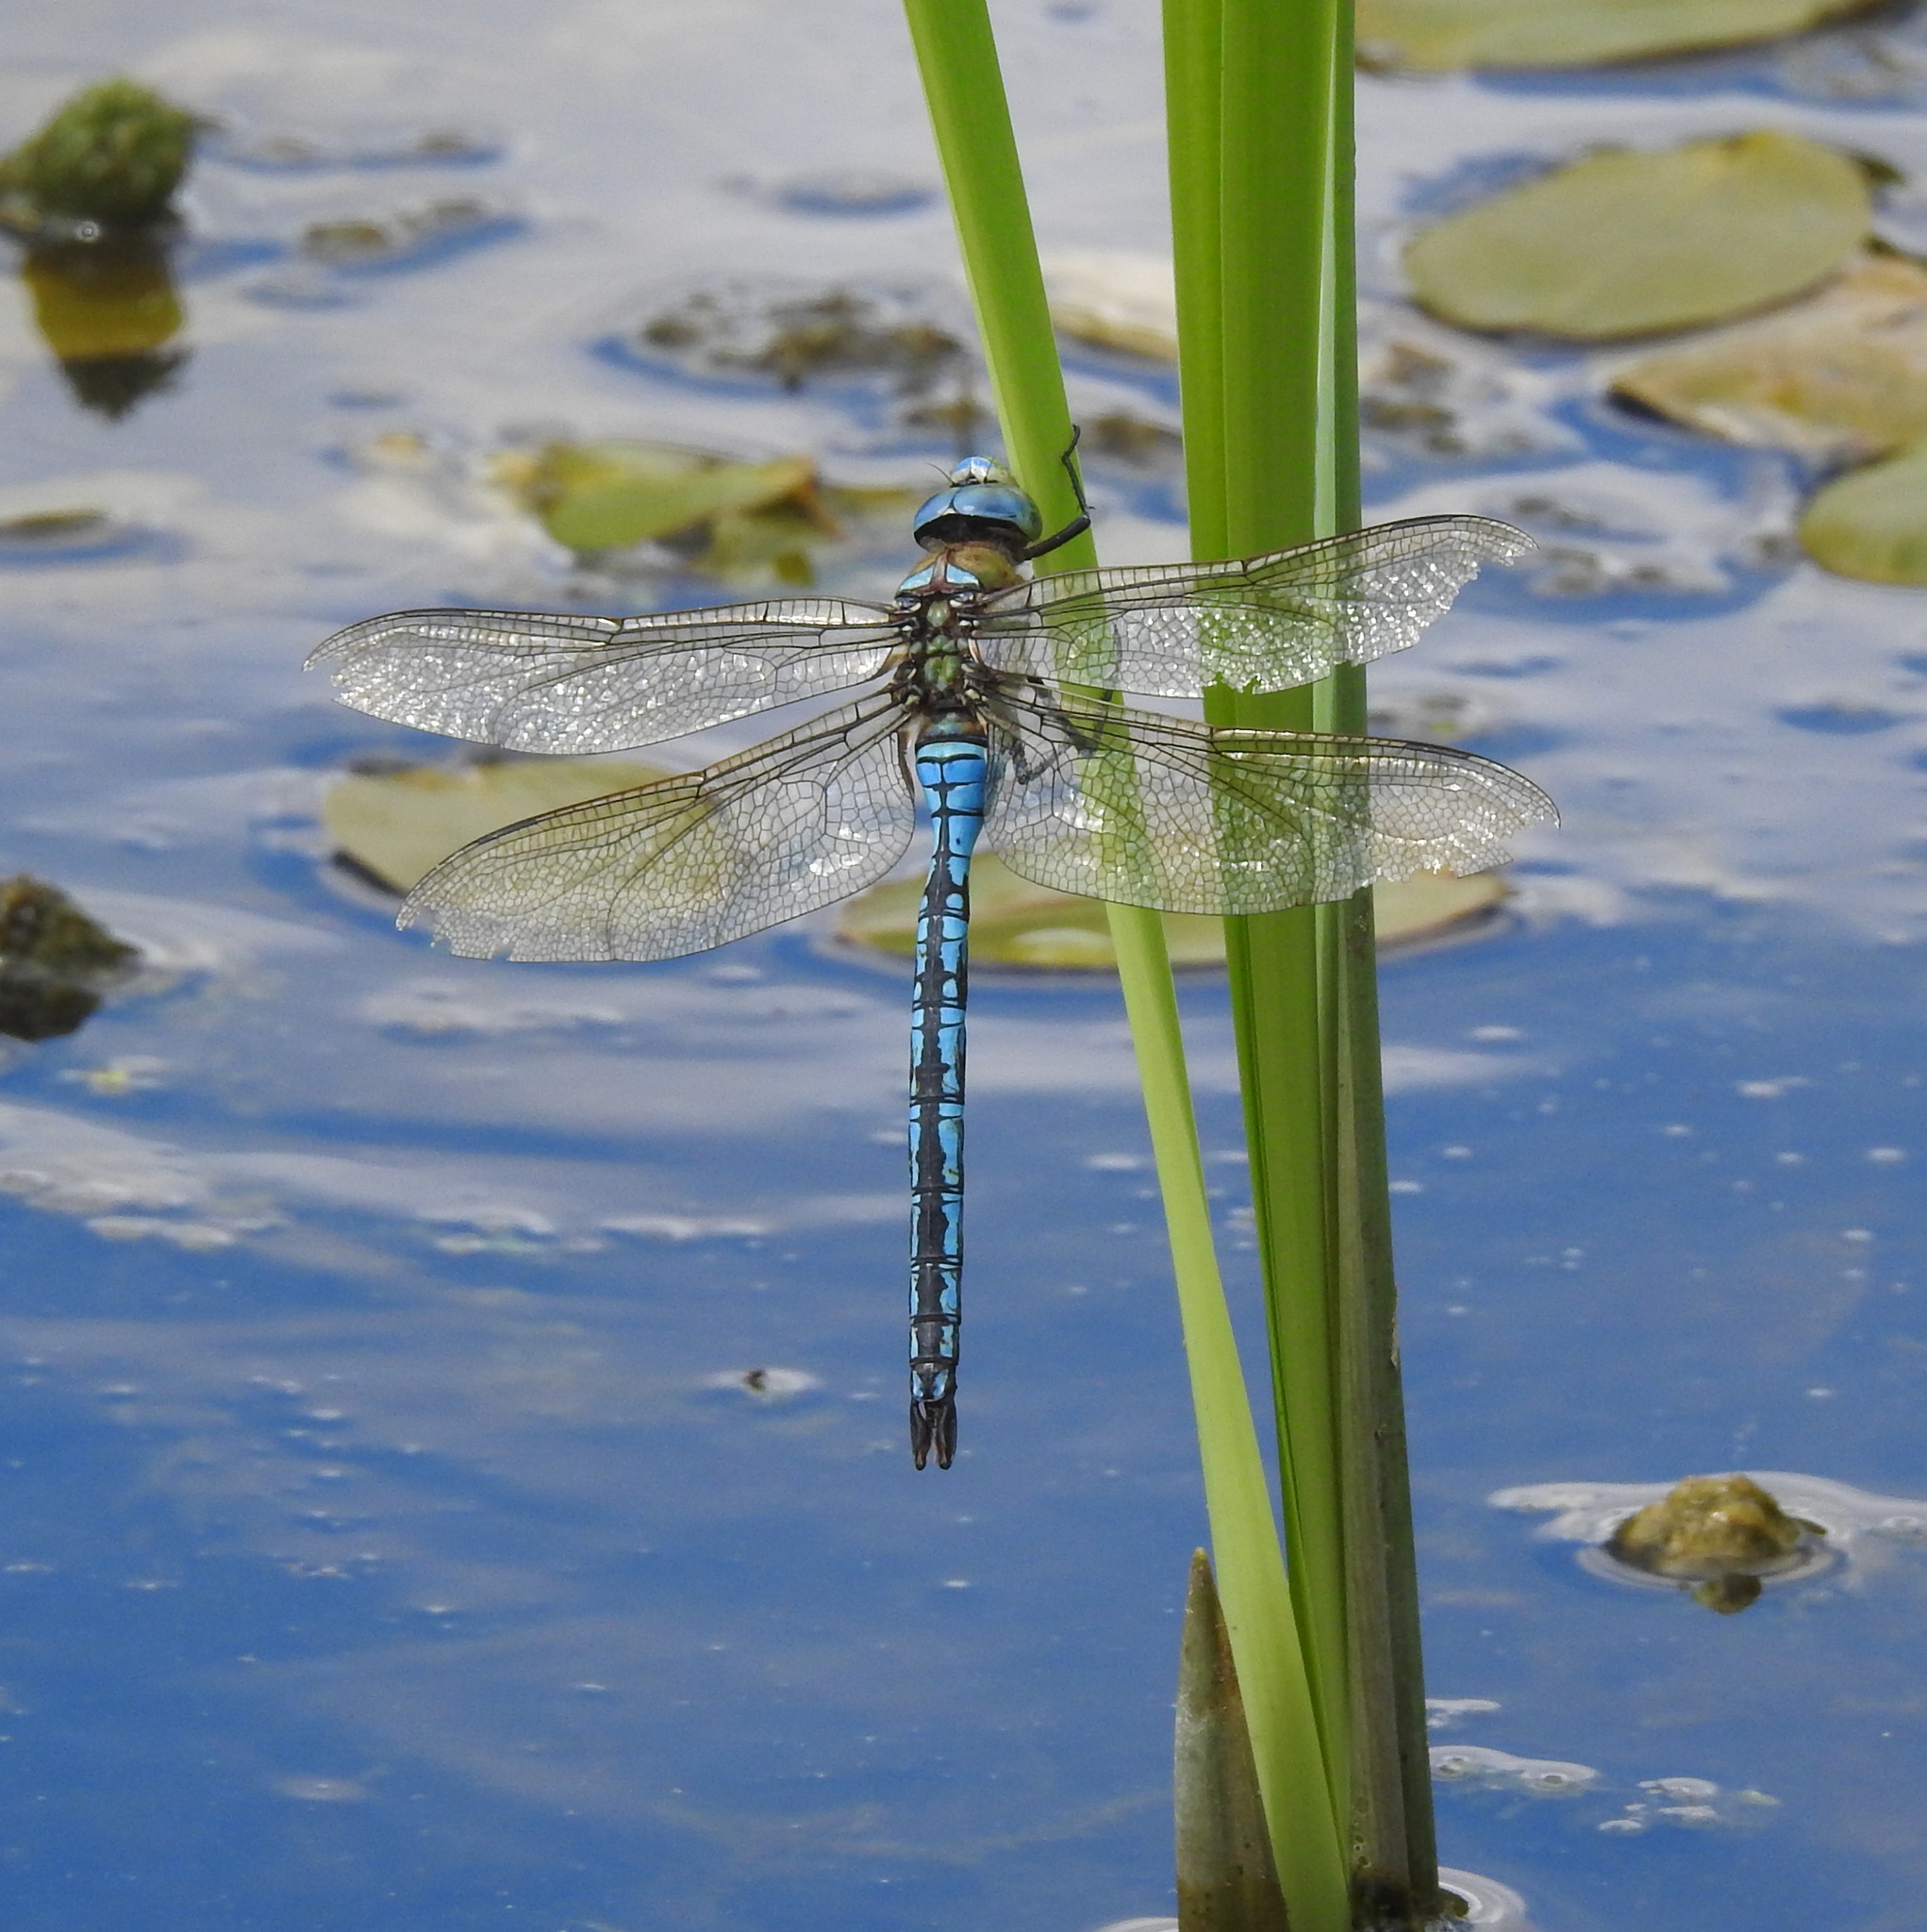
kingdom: Animalia
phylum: Arthropoda
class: Insecta
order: Odonata
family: Aeshnidae
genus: Anax
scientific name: Anax imperator
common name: Emperor dragonfly
